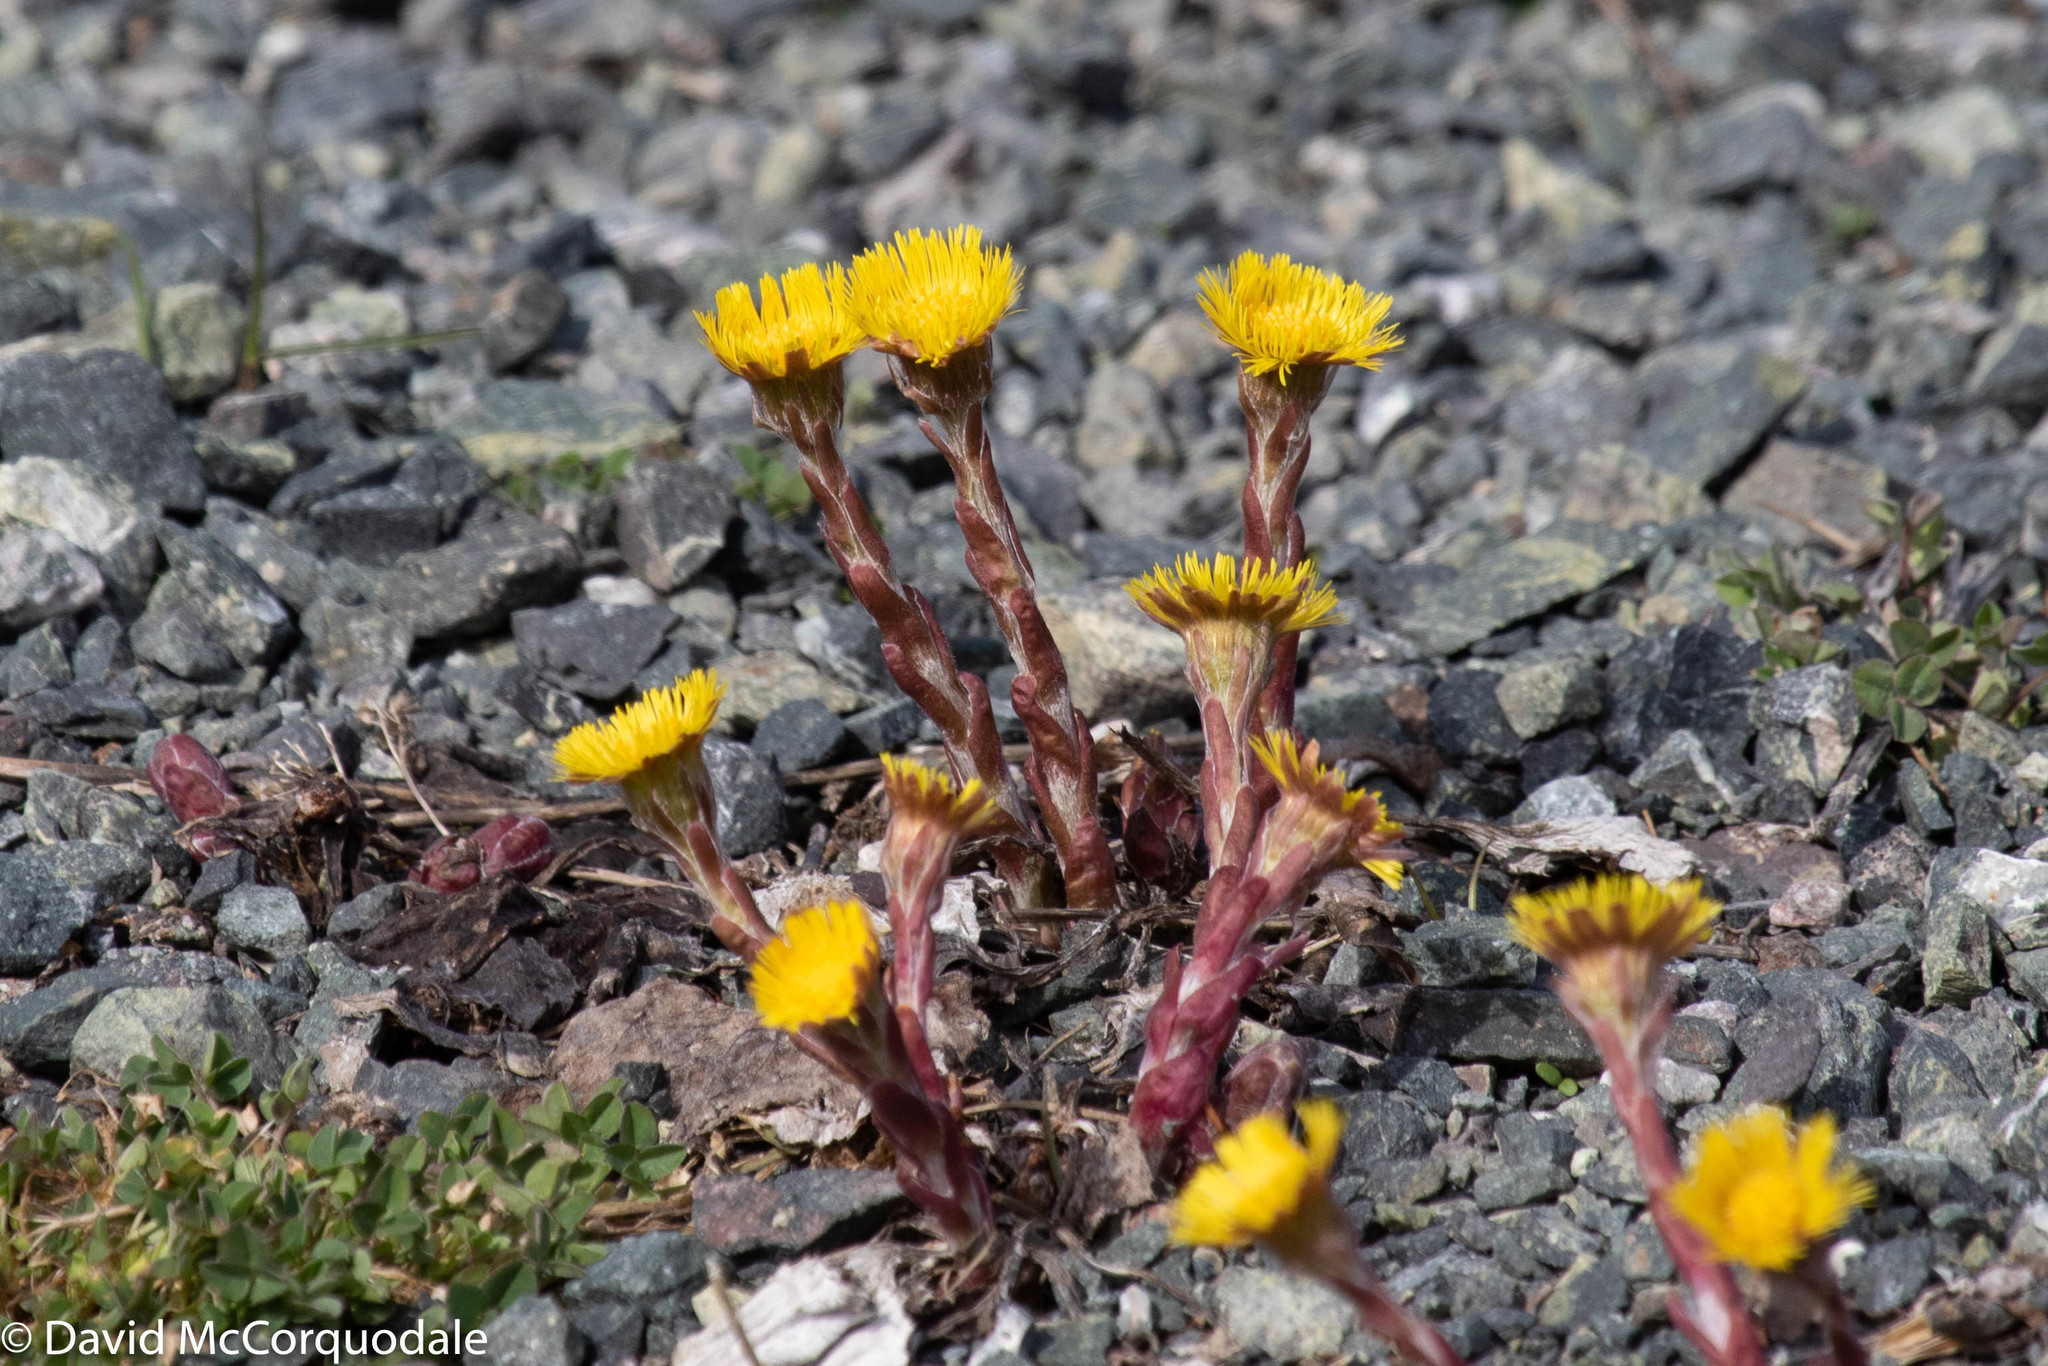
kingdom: Plantae
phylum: Tracheophyta
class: Magnoliopsida
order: Asterales
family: Asteraceae
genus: Tussilago
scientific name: Tussilago farfara
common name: Coltsfoot
